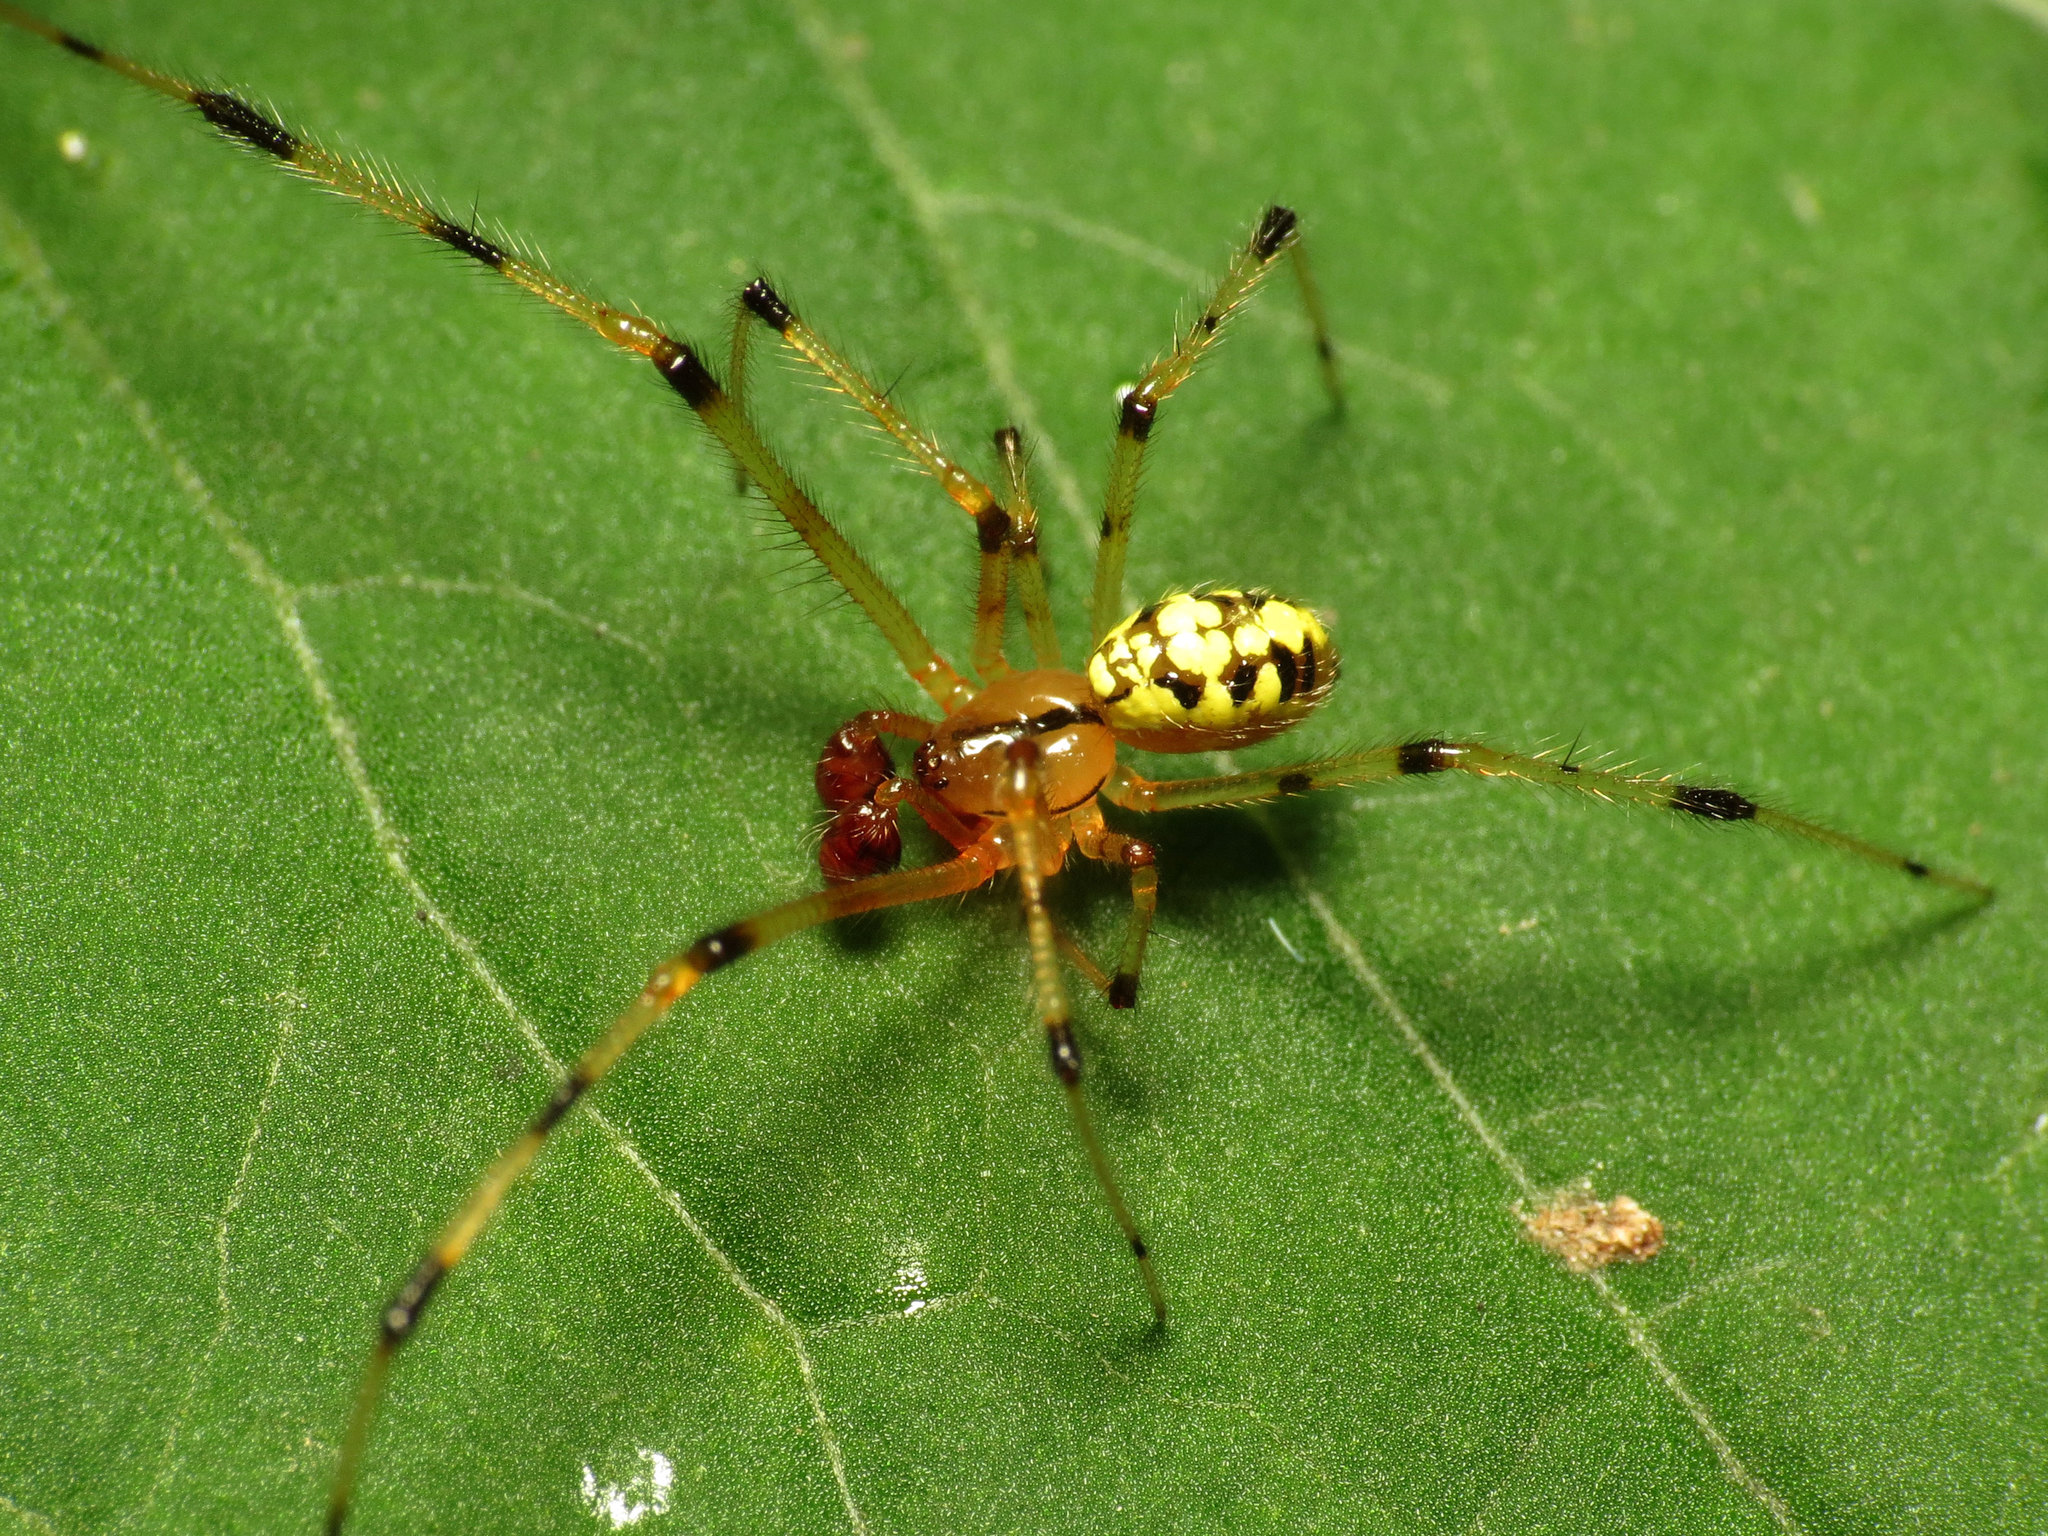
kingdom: Animalia
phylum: Arthropoda
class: Arachnida
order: Araneae
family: Theridiidae
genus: Phylloneta
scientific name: Phylloneta pictipes
